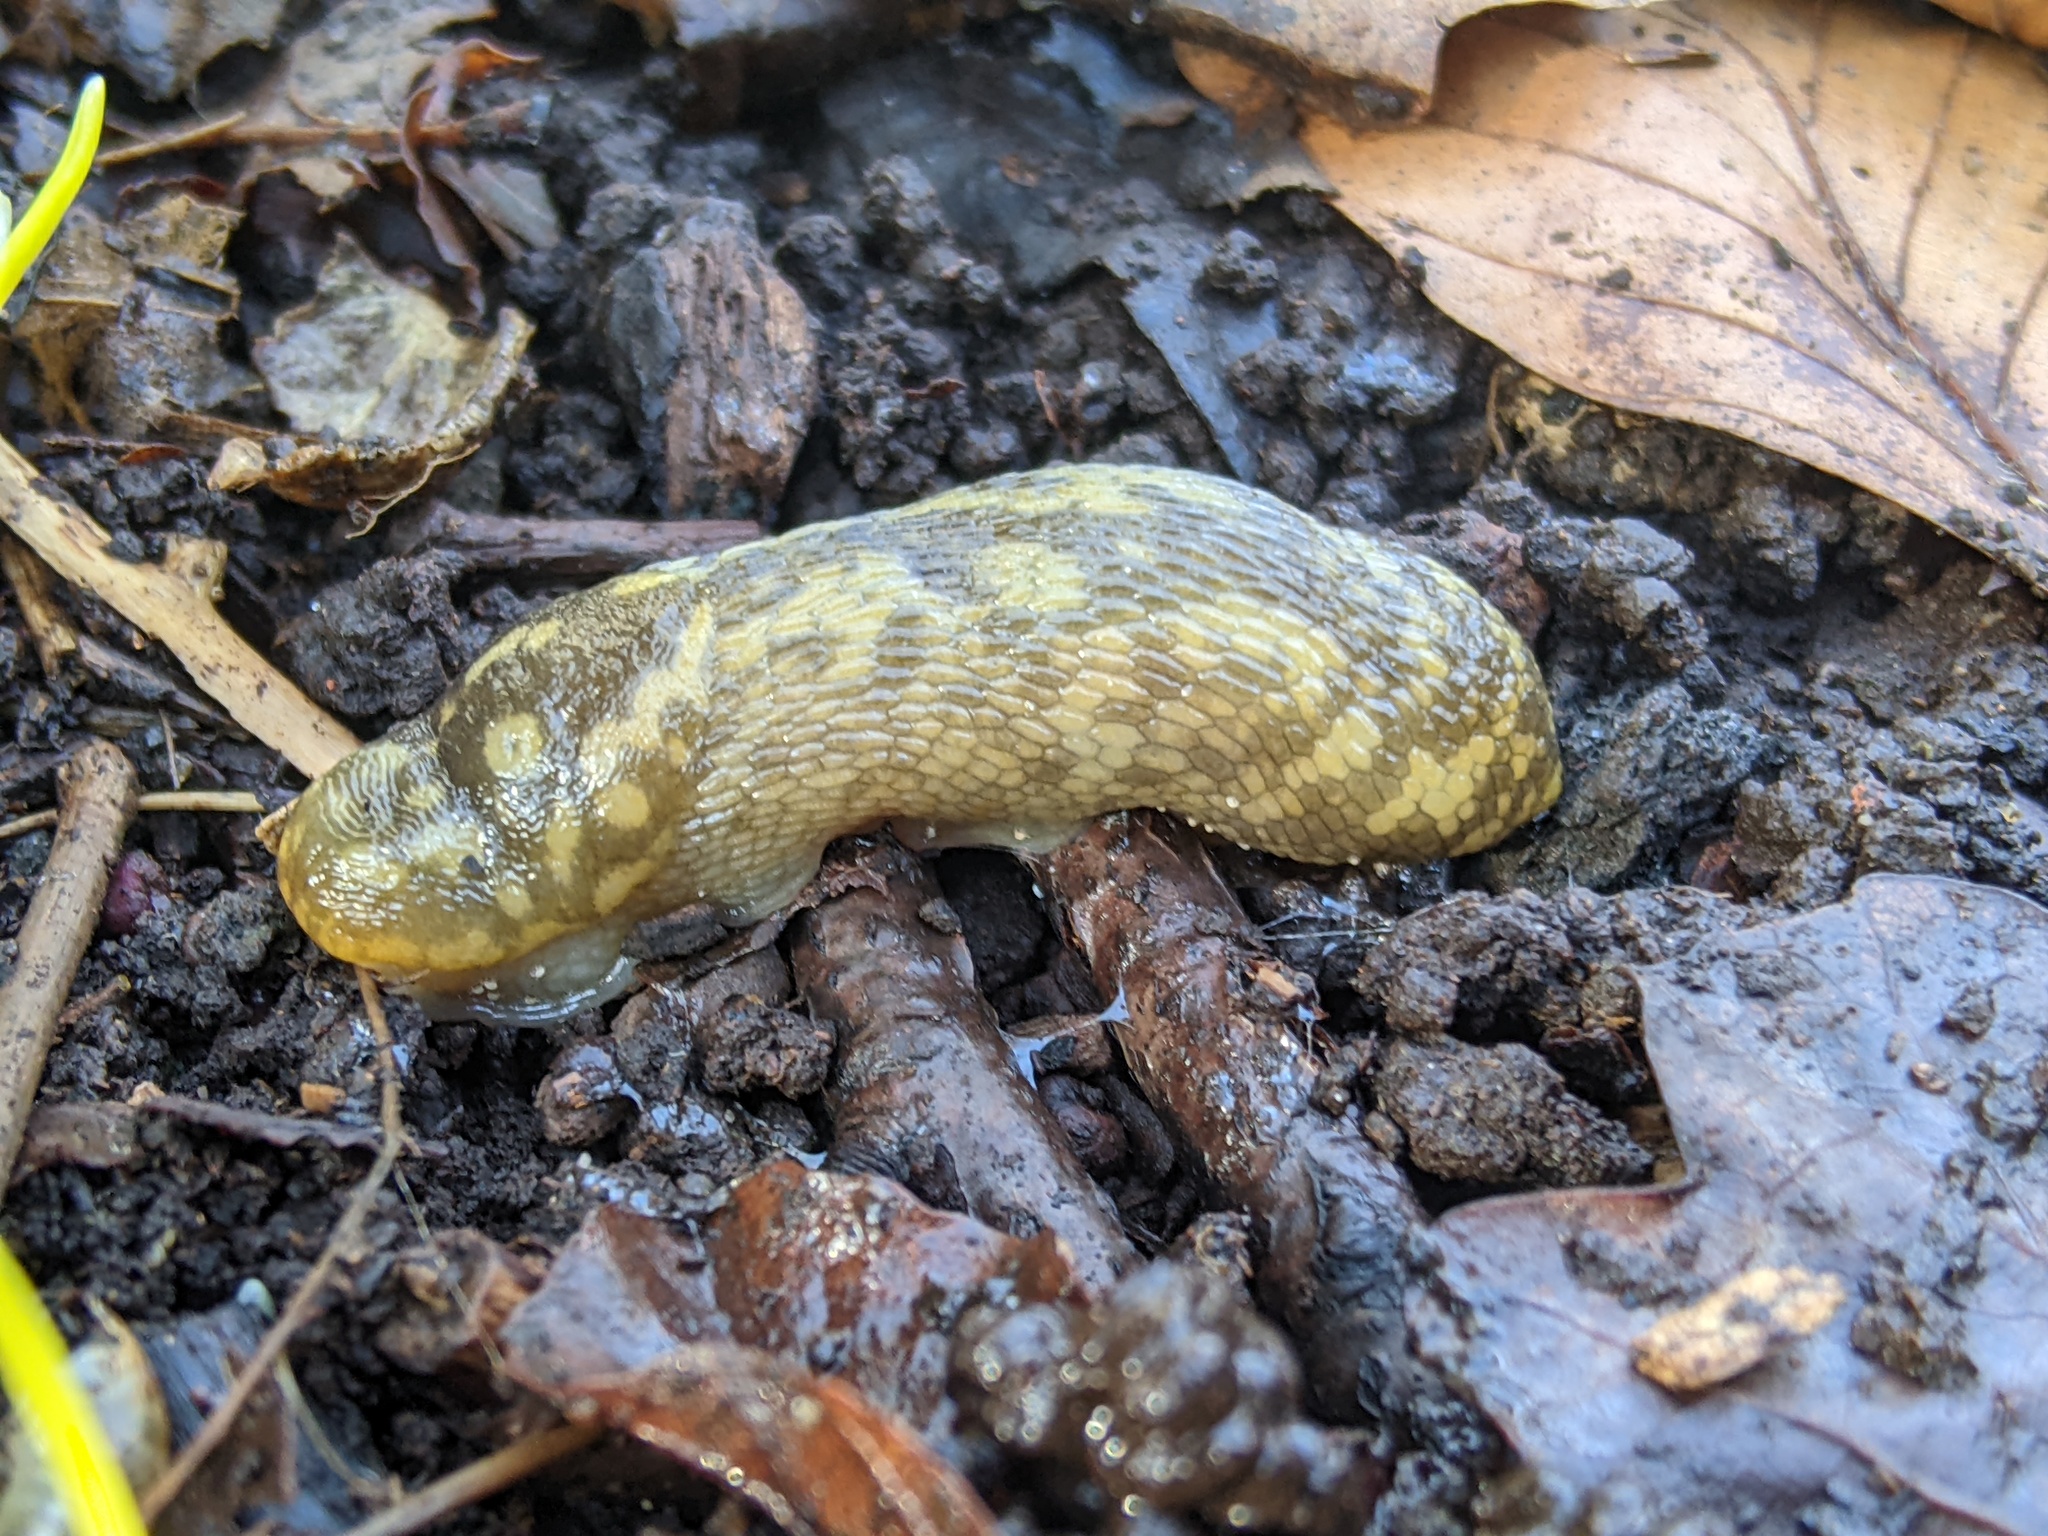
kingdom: Animalia
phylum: Mollusca
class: Gastropoda
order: Stylommatophora
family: Limacidae
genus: Limacus
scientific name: Limacus maculatus
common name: Irish yellow slug
